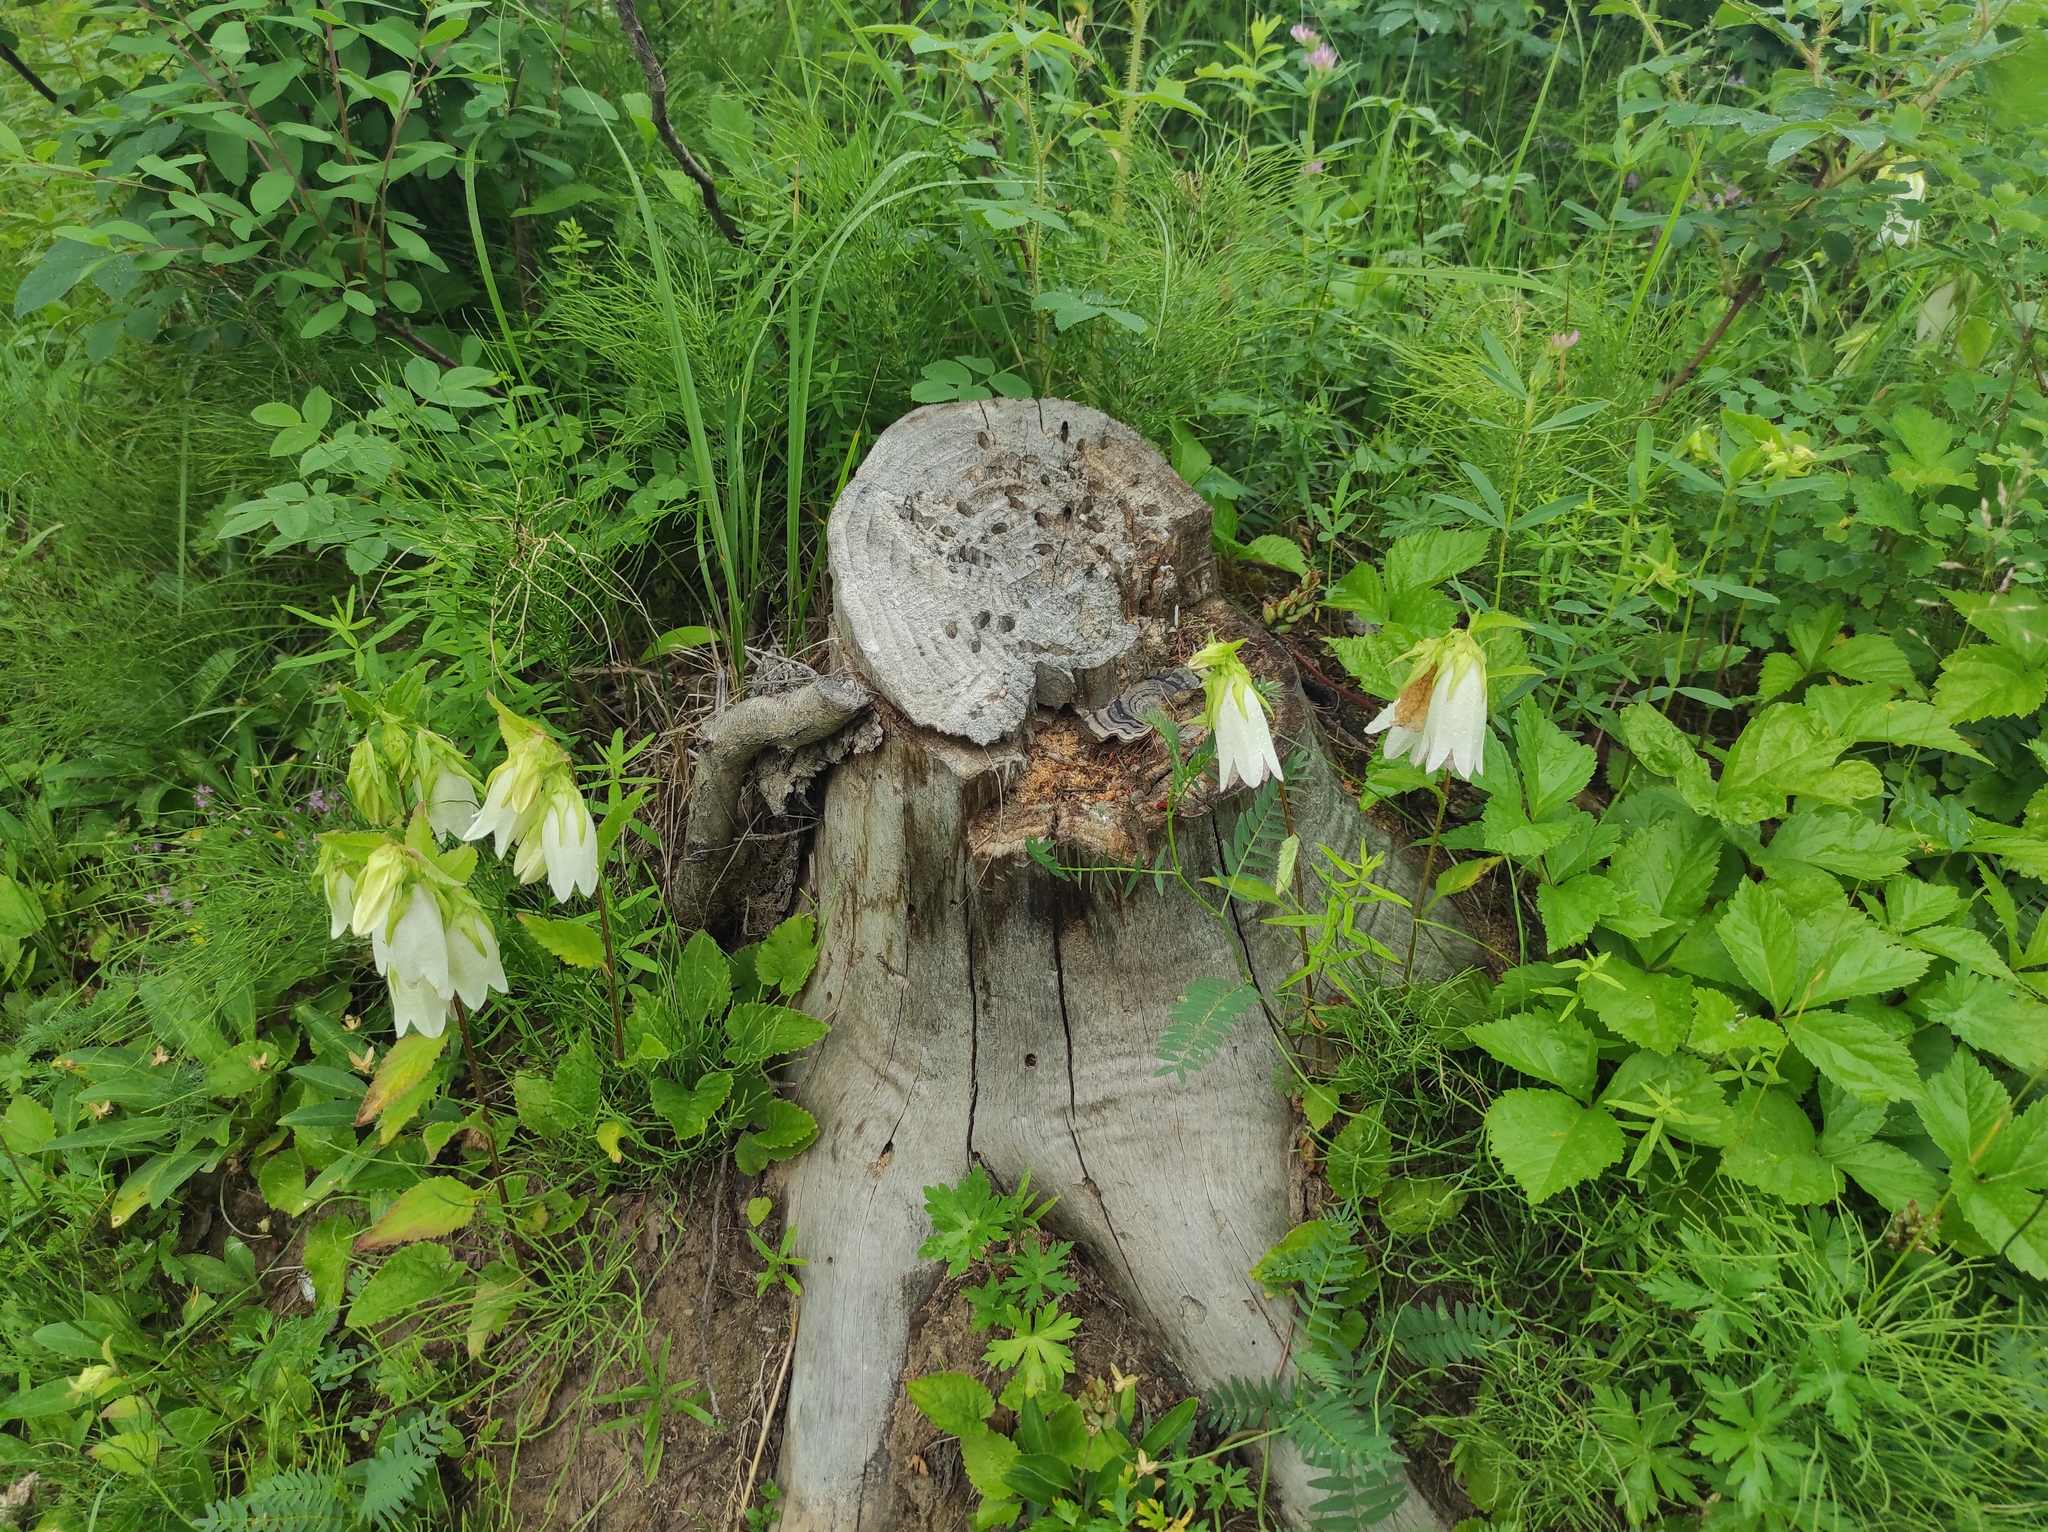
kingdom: Plantae
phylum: Tracheophyta
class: Magnoliopsida
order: Asterales
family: Campanulaceae
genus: Campanula
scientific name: Campanula punctata
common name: Spotted bellflower
